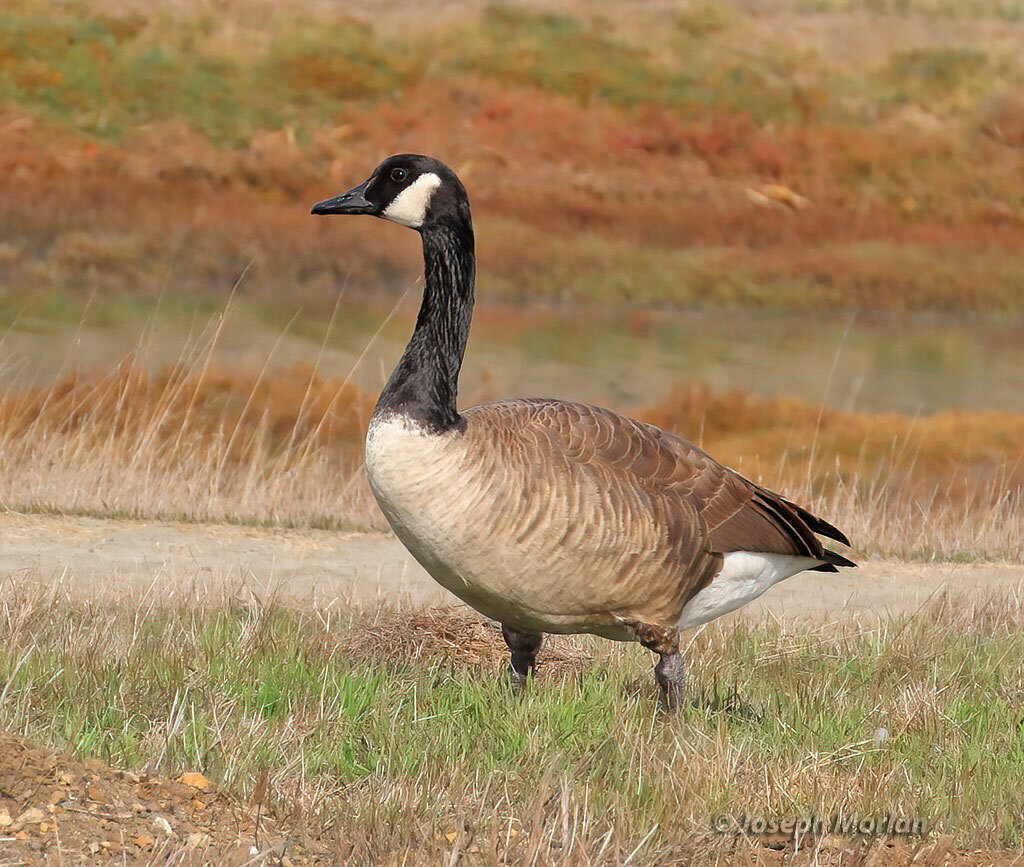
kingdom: Animalia
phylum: Chordata
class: Aves
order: Anseriformes
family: Anatidae
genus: Branta
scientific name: Branta canadensis
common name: Canada goose
